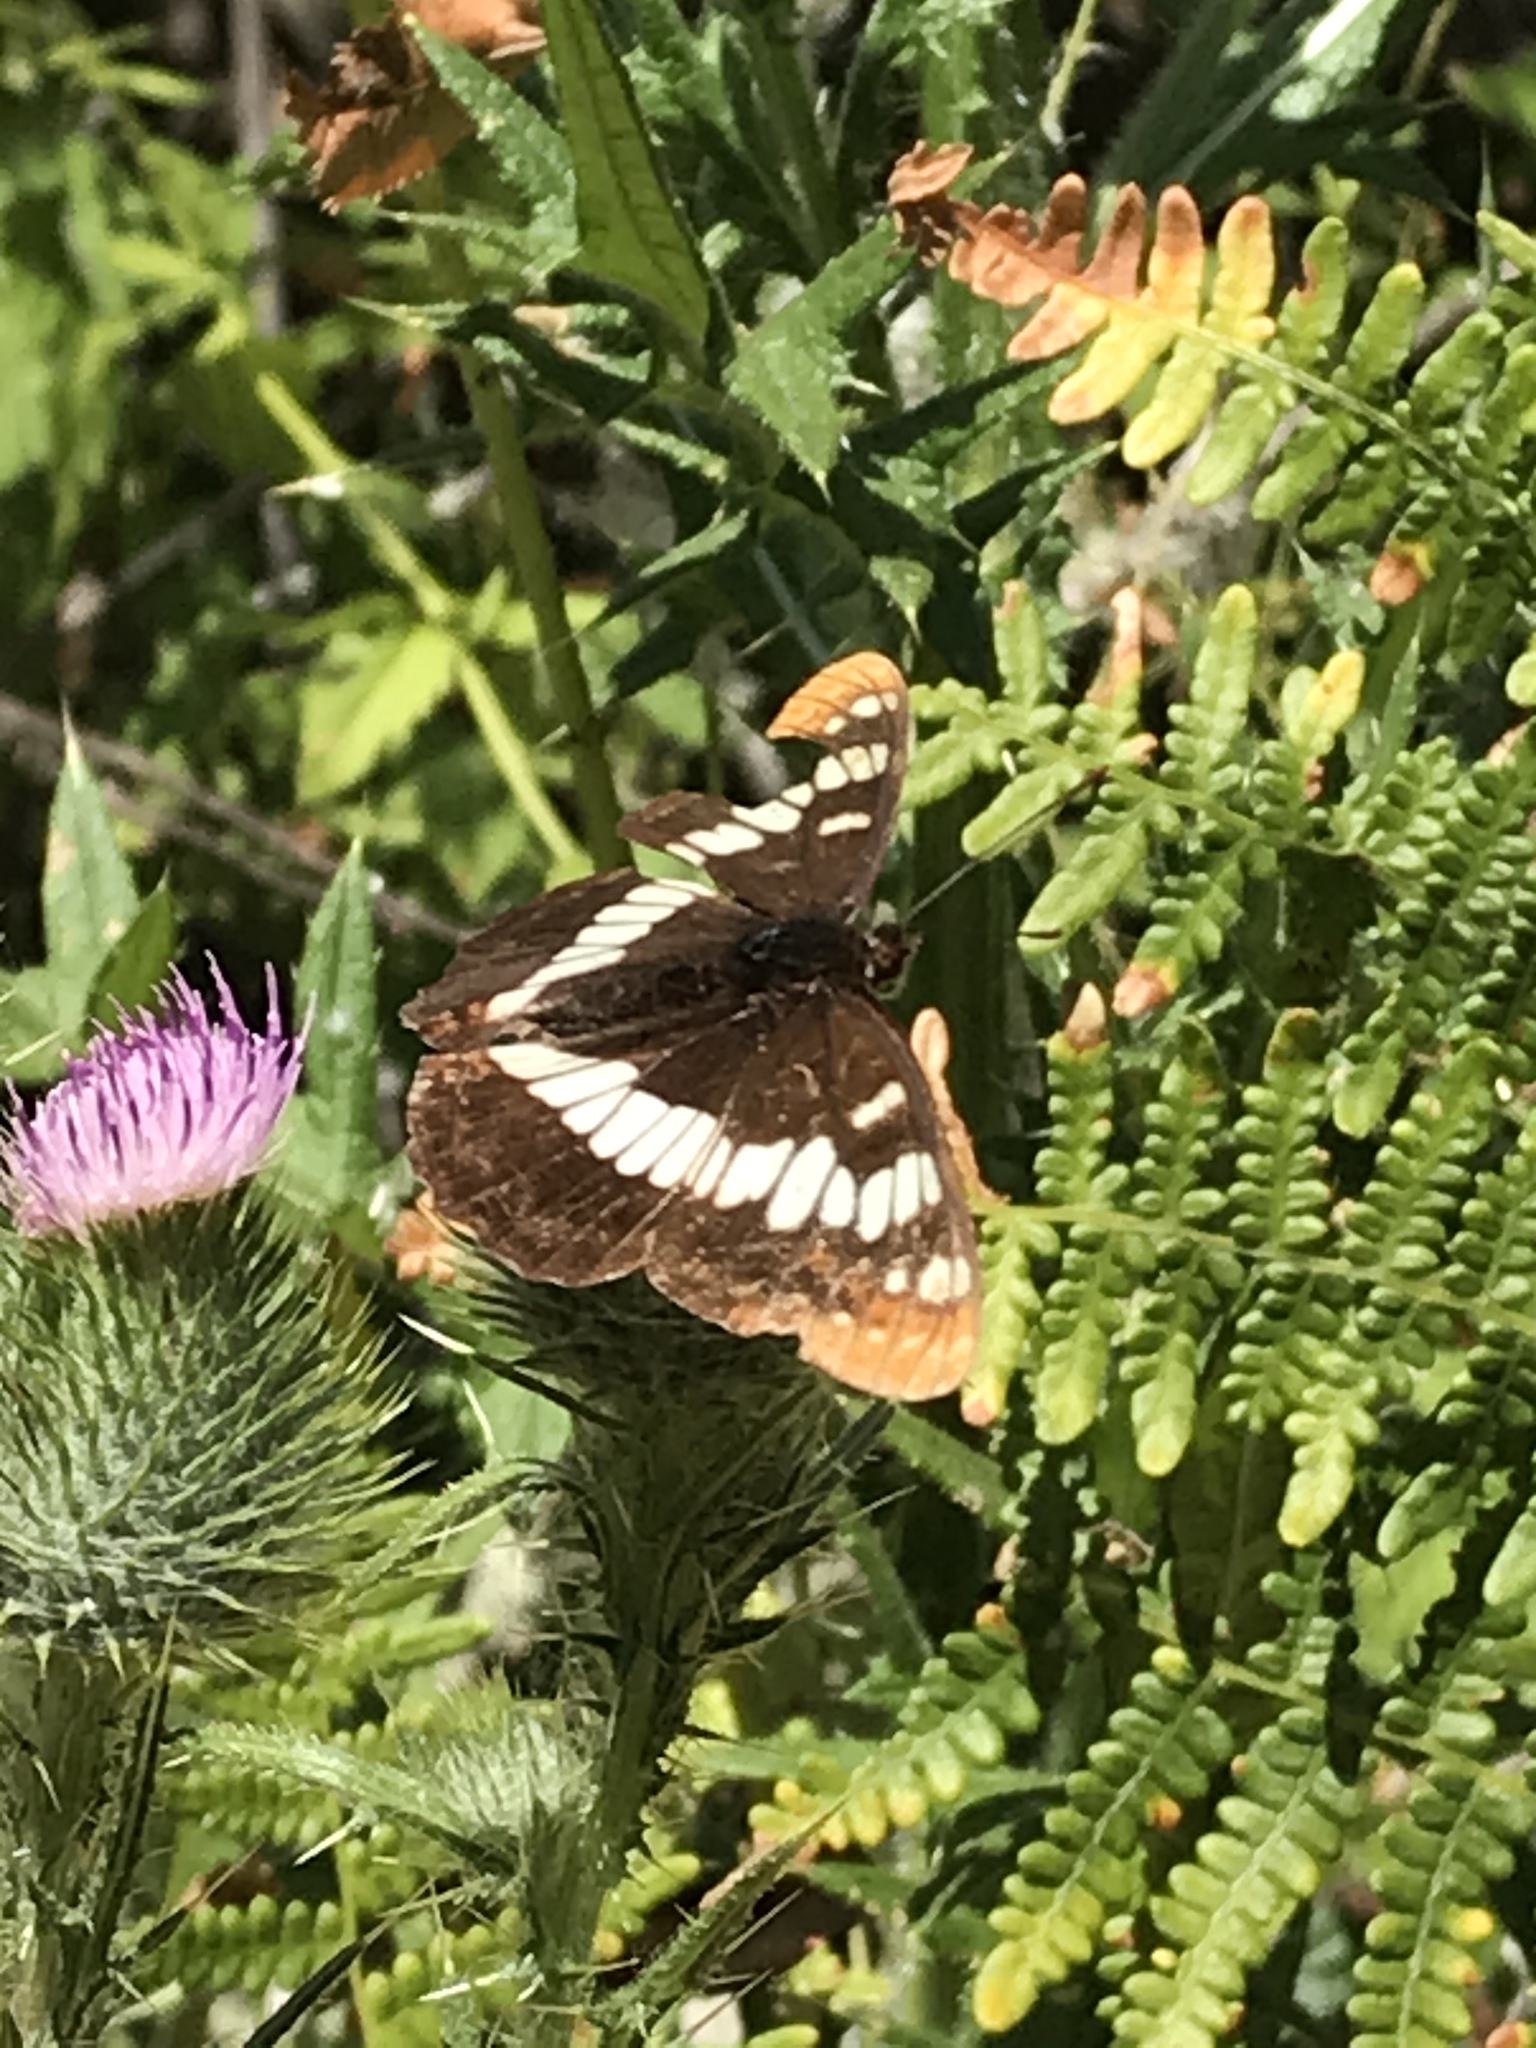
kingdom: Animalia
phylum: Arthropoda
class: Insecta
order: Lepidoptera
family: Nymphalidae
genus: Limenitis
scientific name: Limenitis lorquini
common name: Lorquin's admiral
